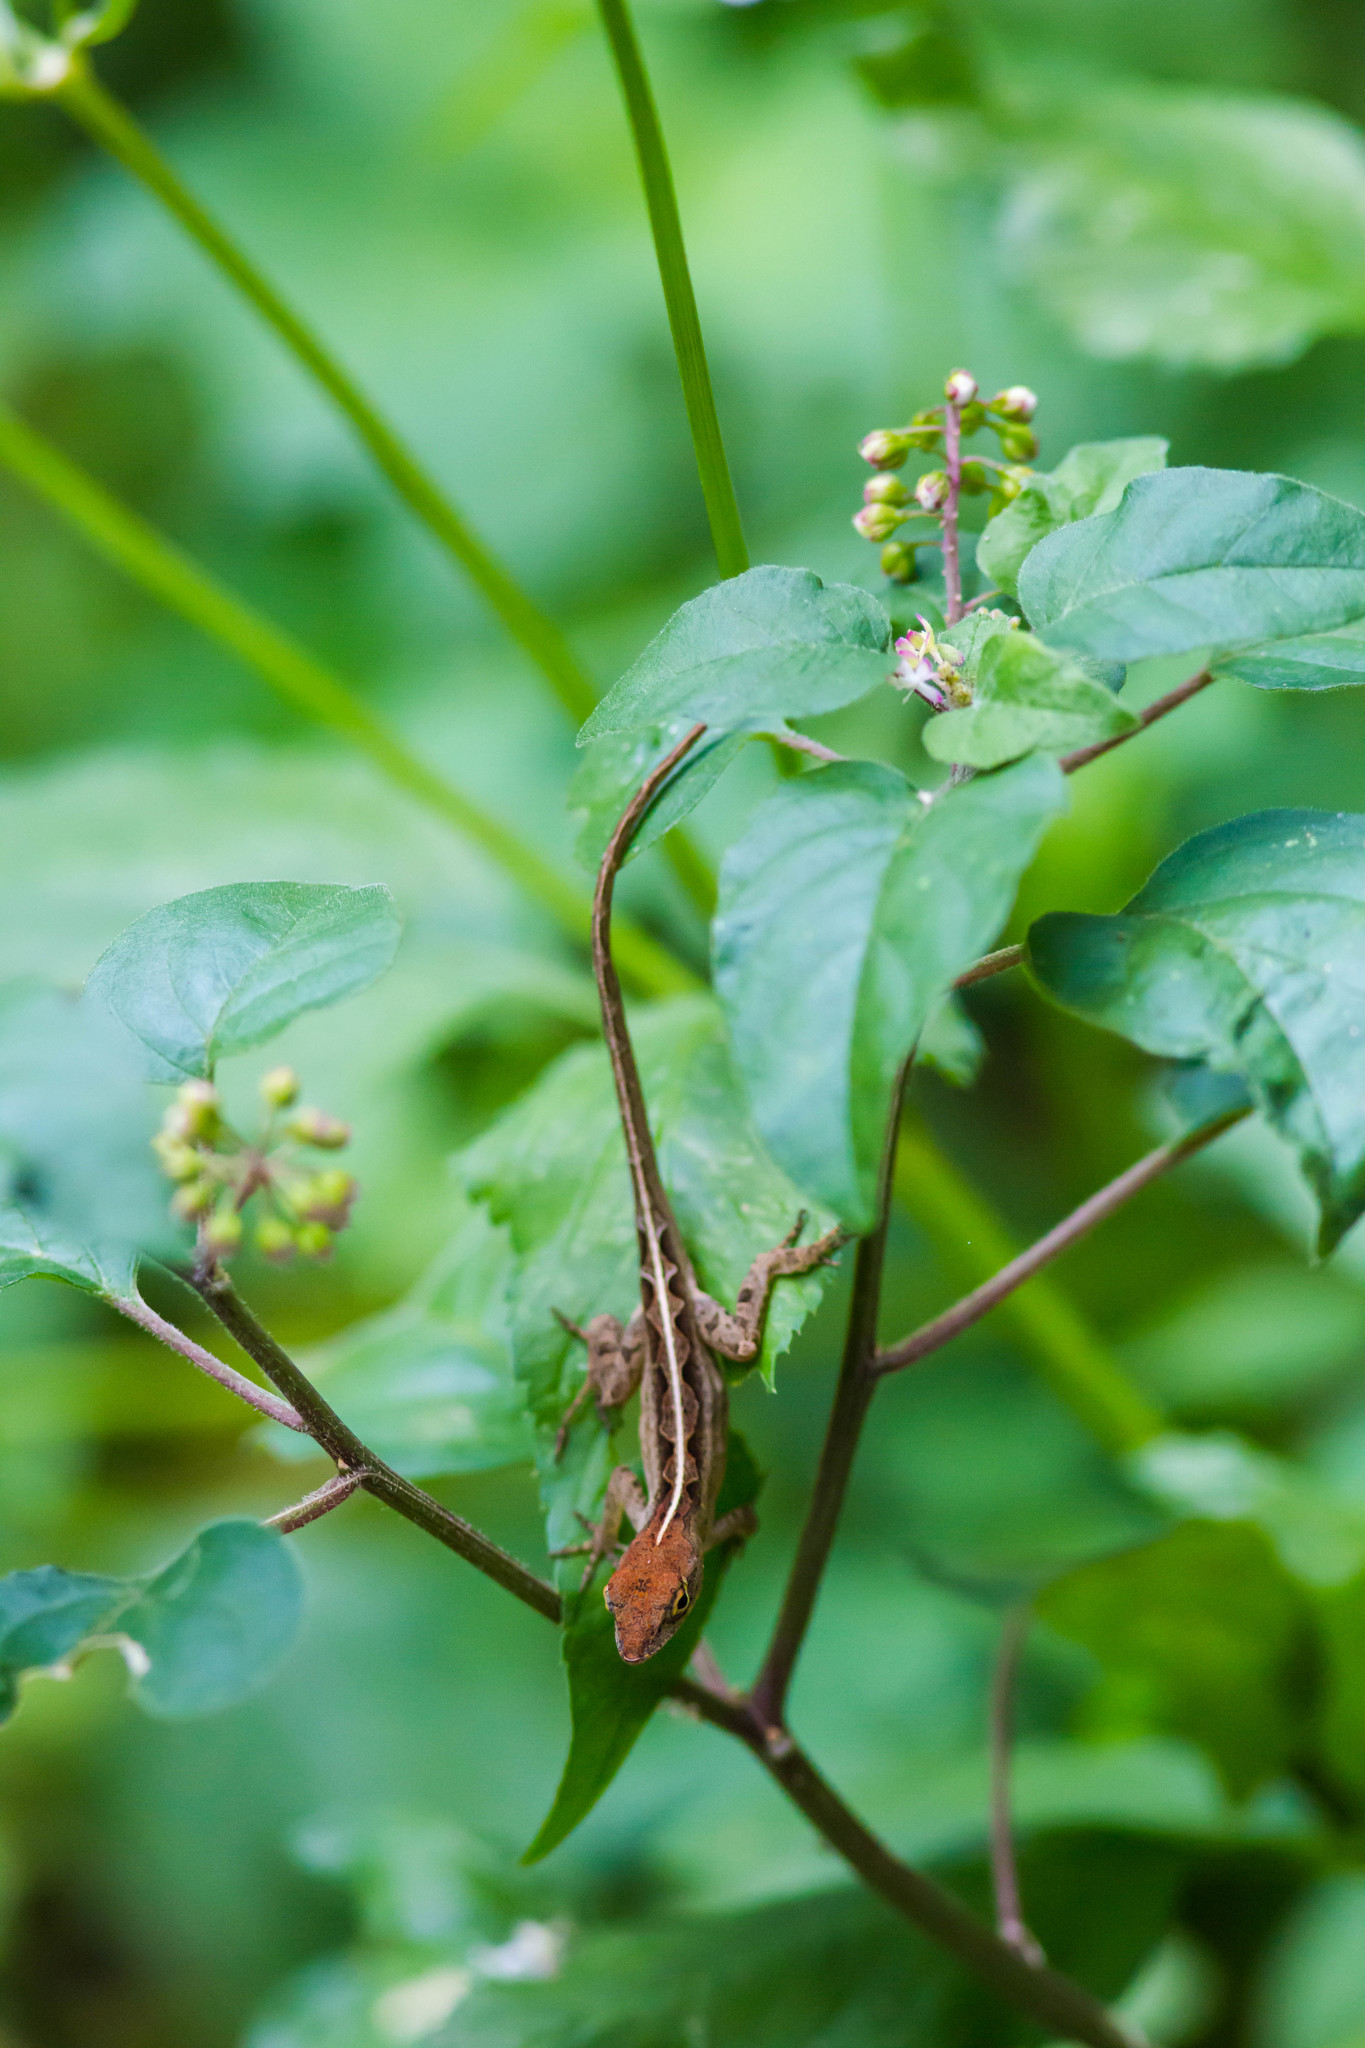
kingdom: Animalia
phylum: Chordata
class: Squamata
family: Dactyloidae
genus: Anolis
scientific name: Anolis sagrei
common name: Brown anole
